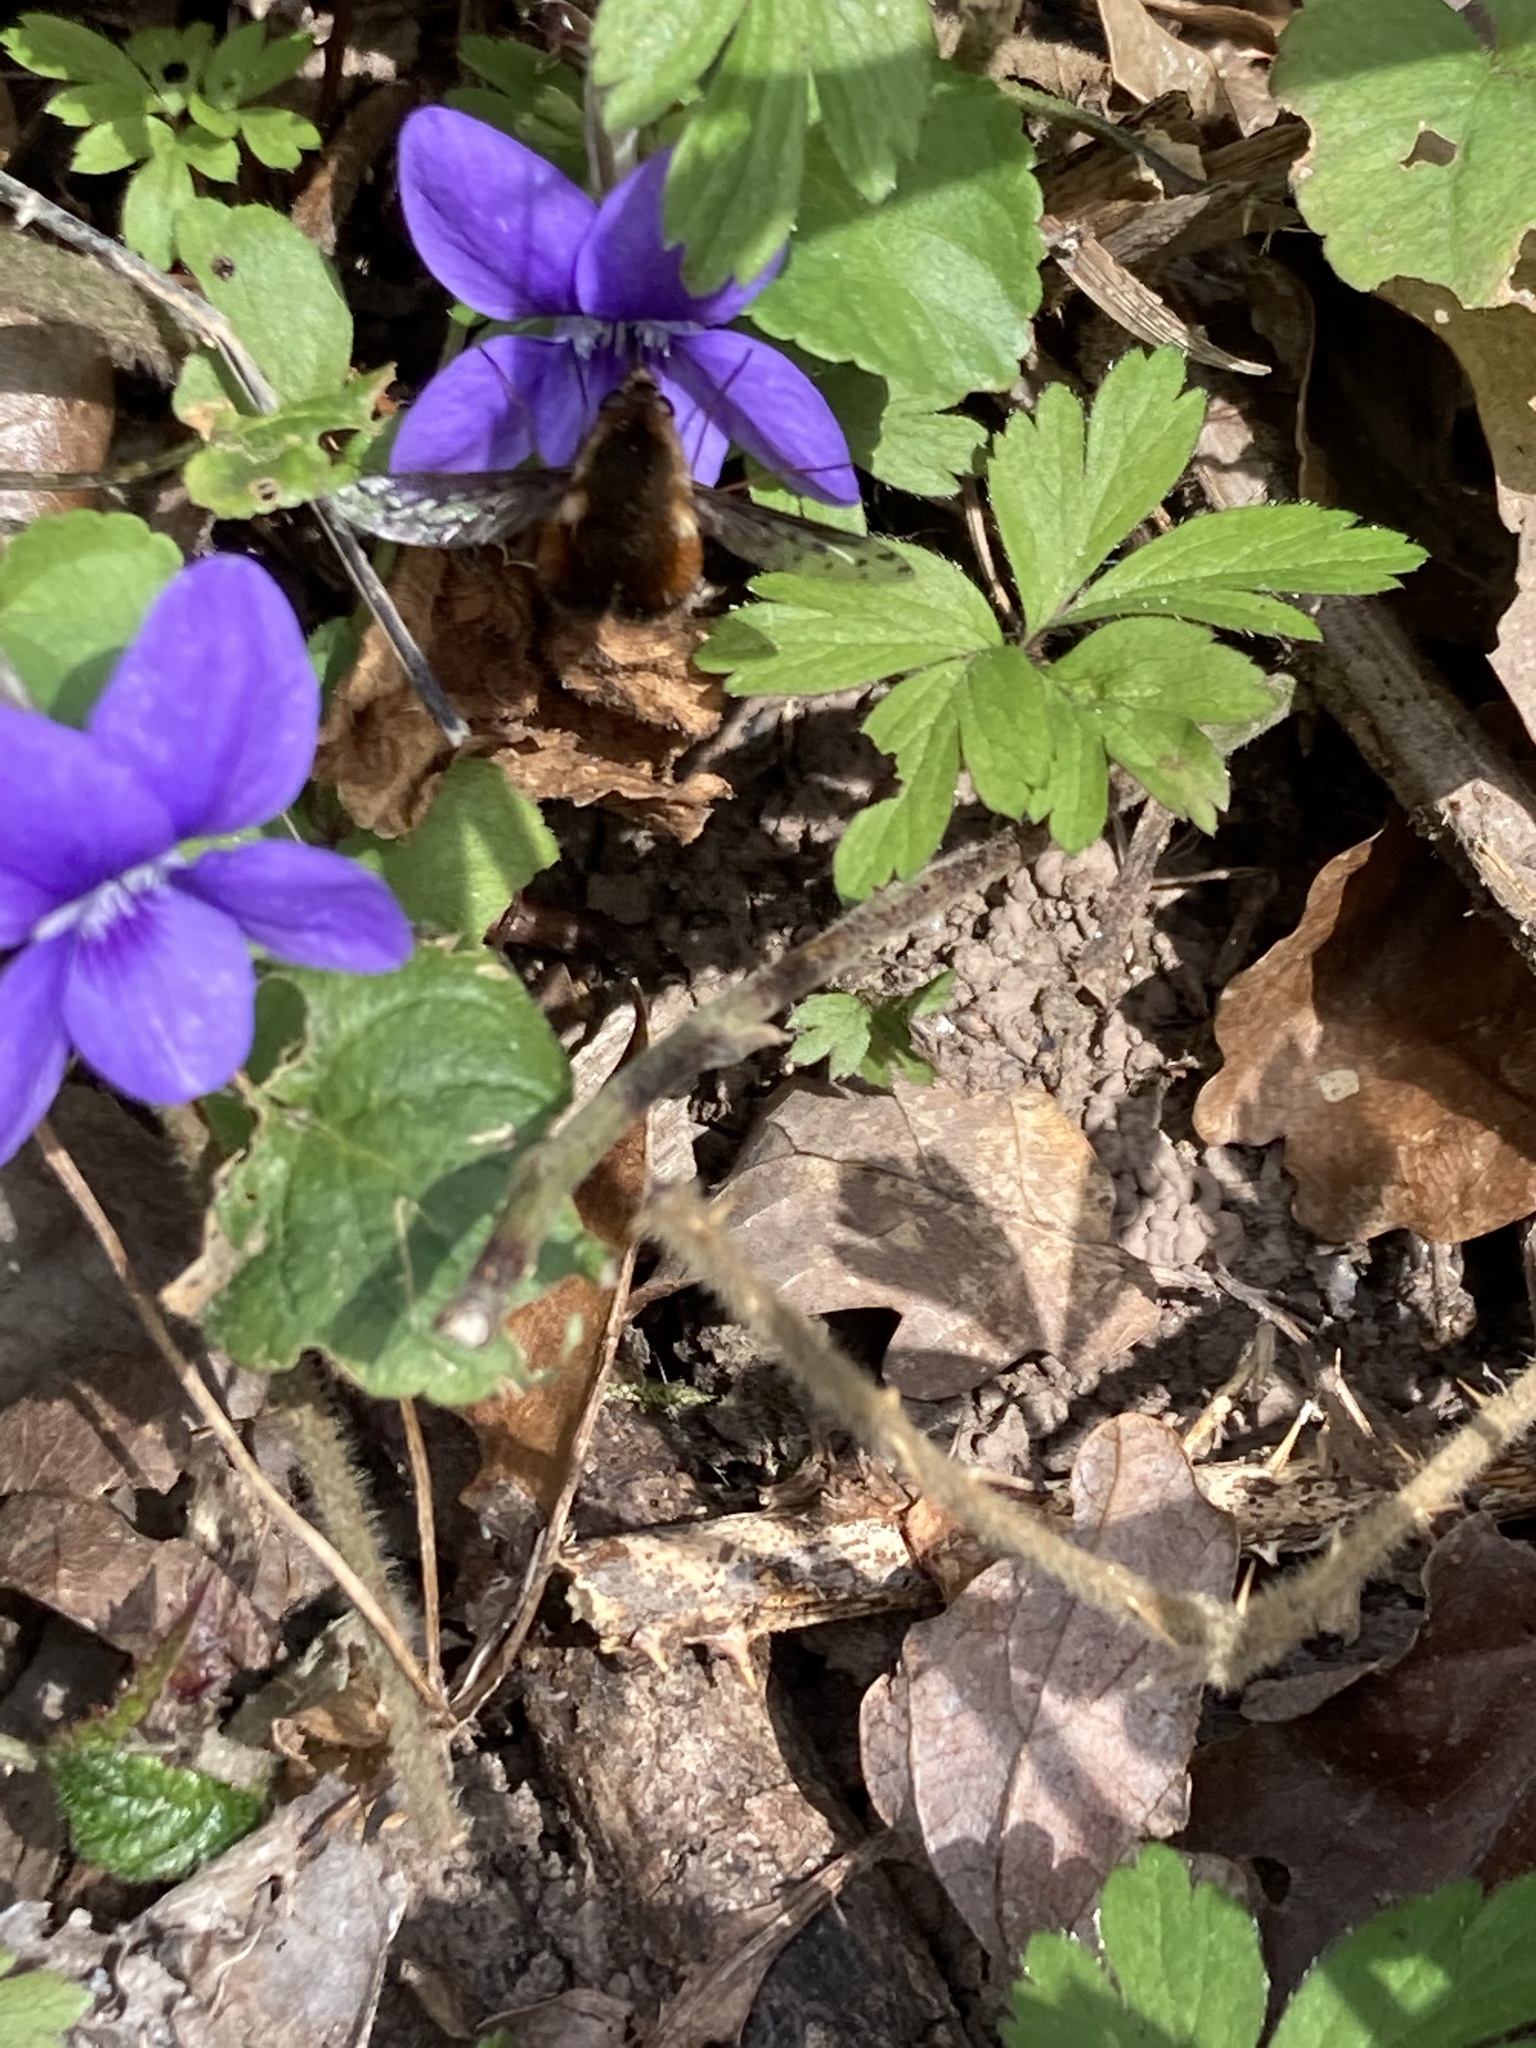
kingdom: Animalia
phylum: Arthropoda
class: Insecta
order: Diptera
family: Bombyliidae
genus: Bombylius
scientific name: Bombylius discolor
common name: Dotted bee-fly
